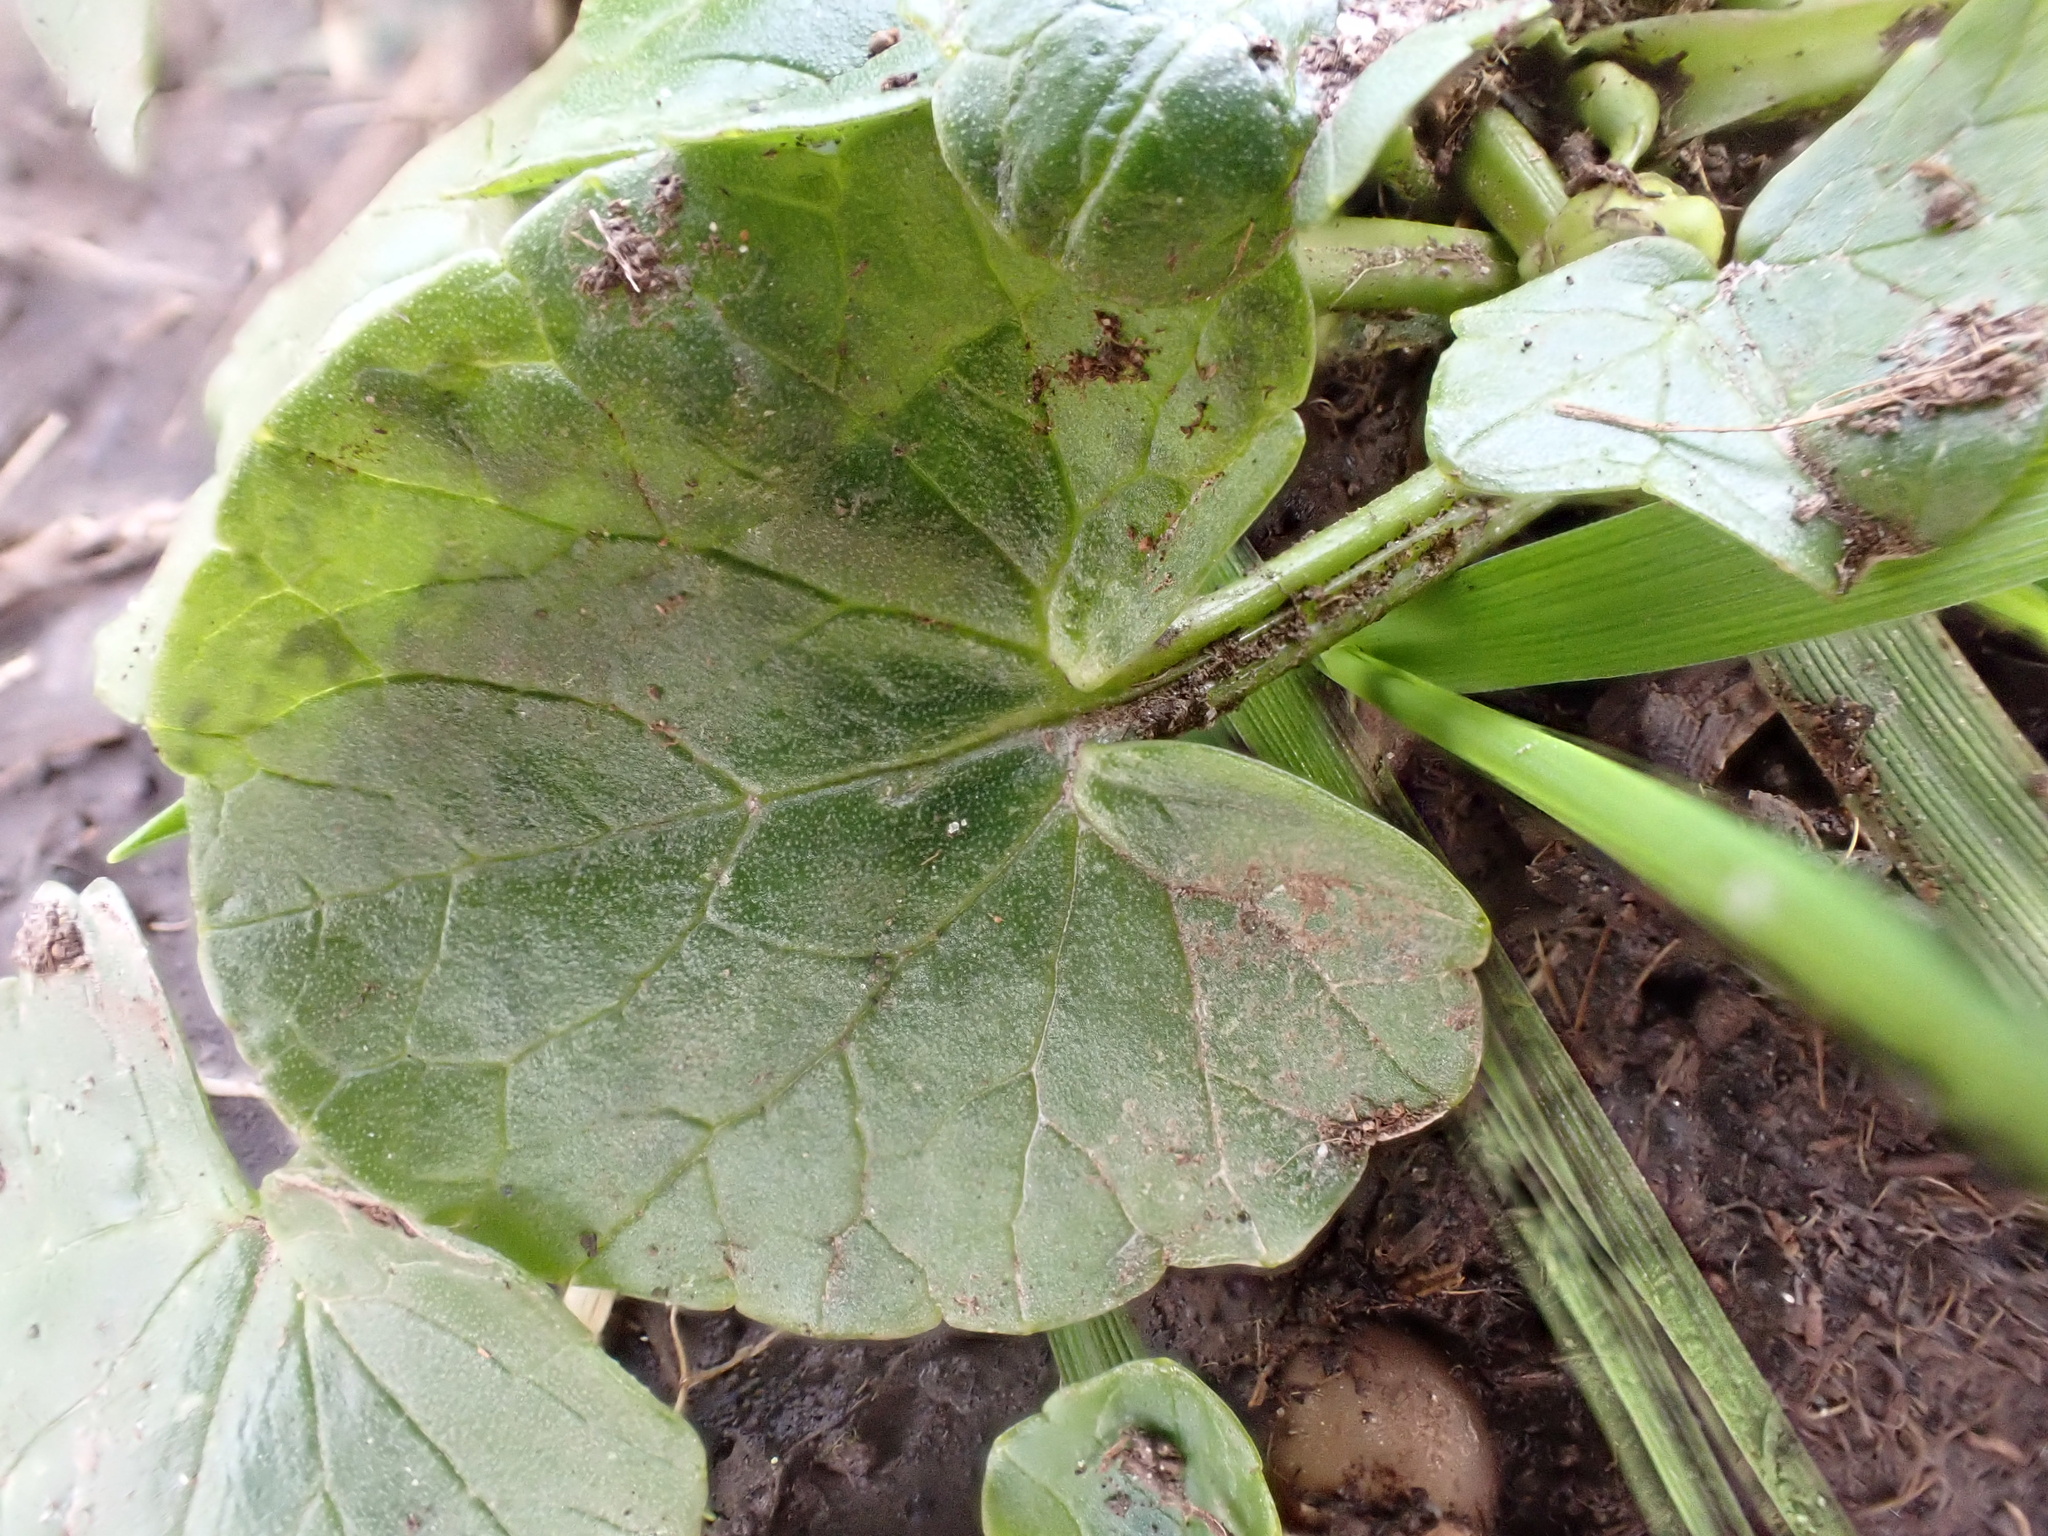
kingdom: Plantae
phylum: Tracheophyta
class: Magnoliopsida
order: Ranunculales
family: Ranunculaceae
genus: Ficaria
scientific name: Ficaria verna
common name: Lesser celandine
